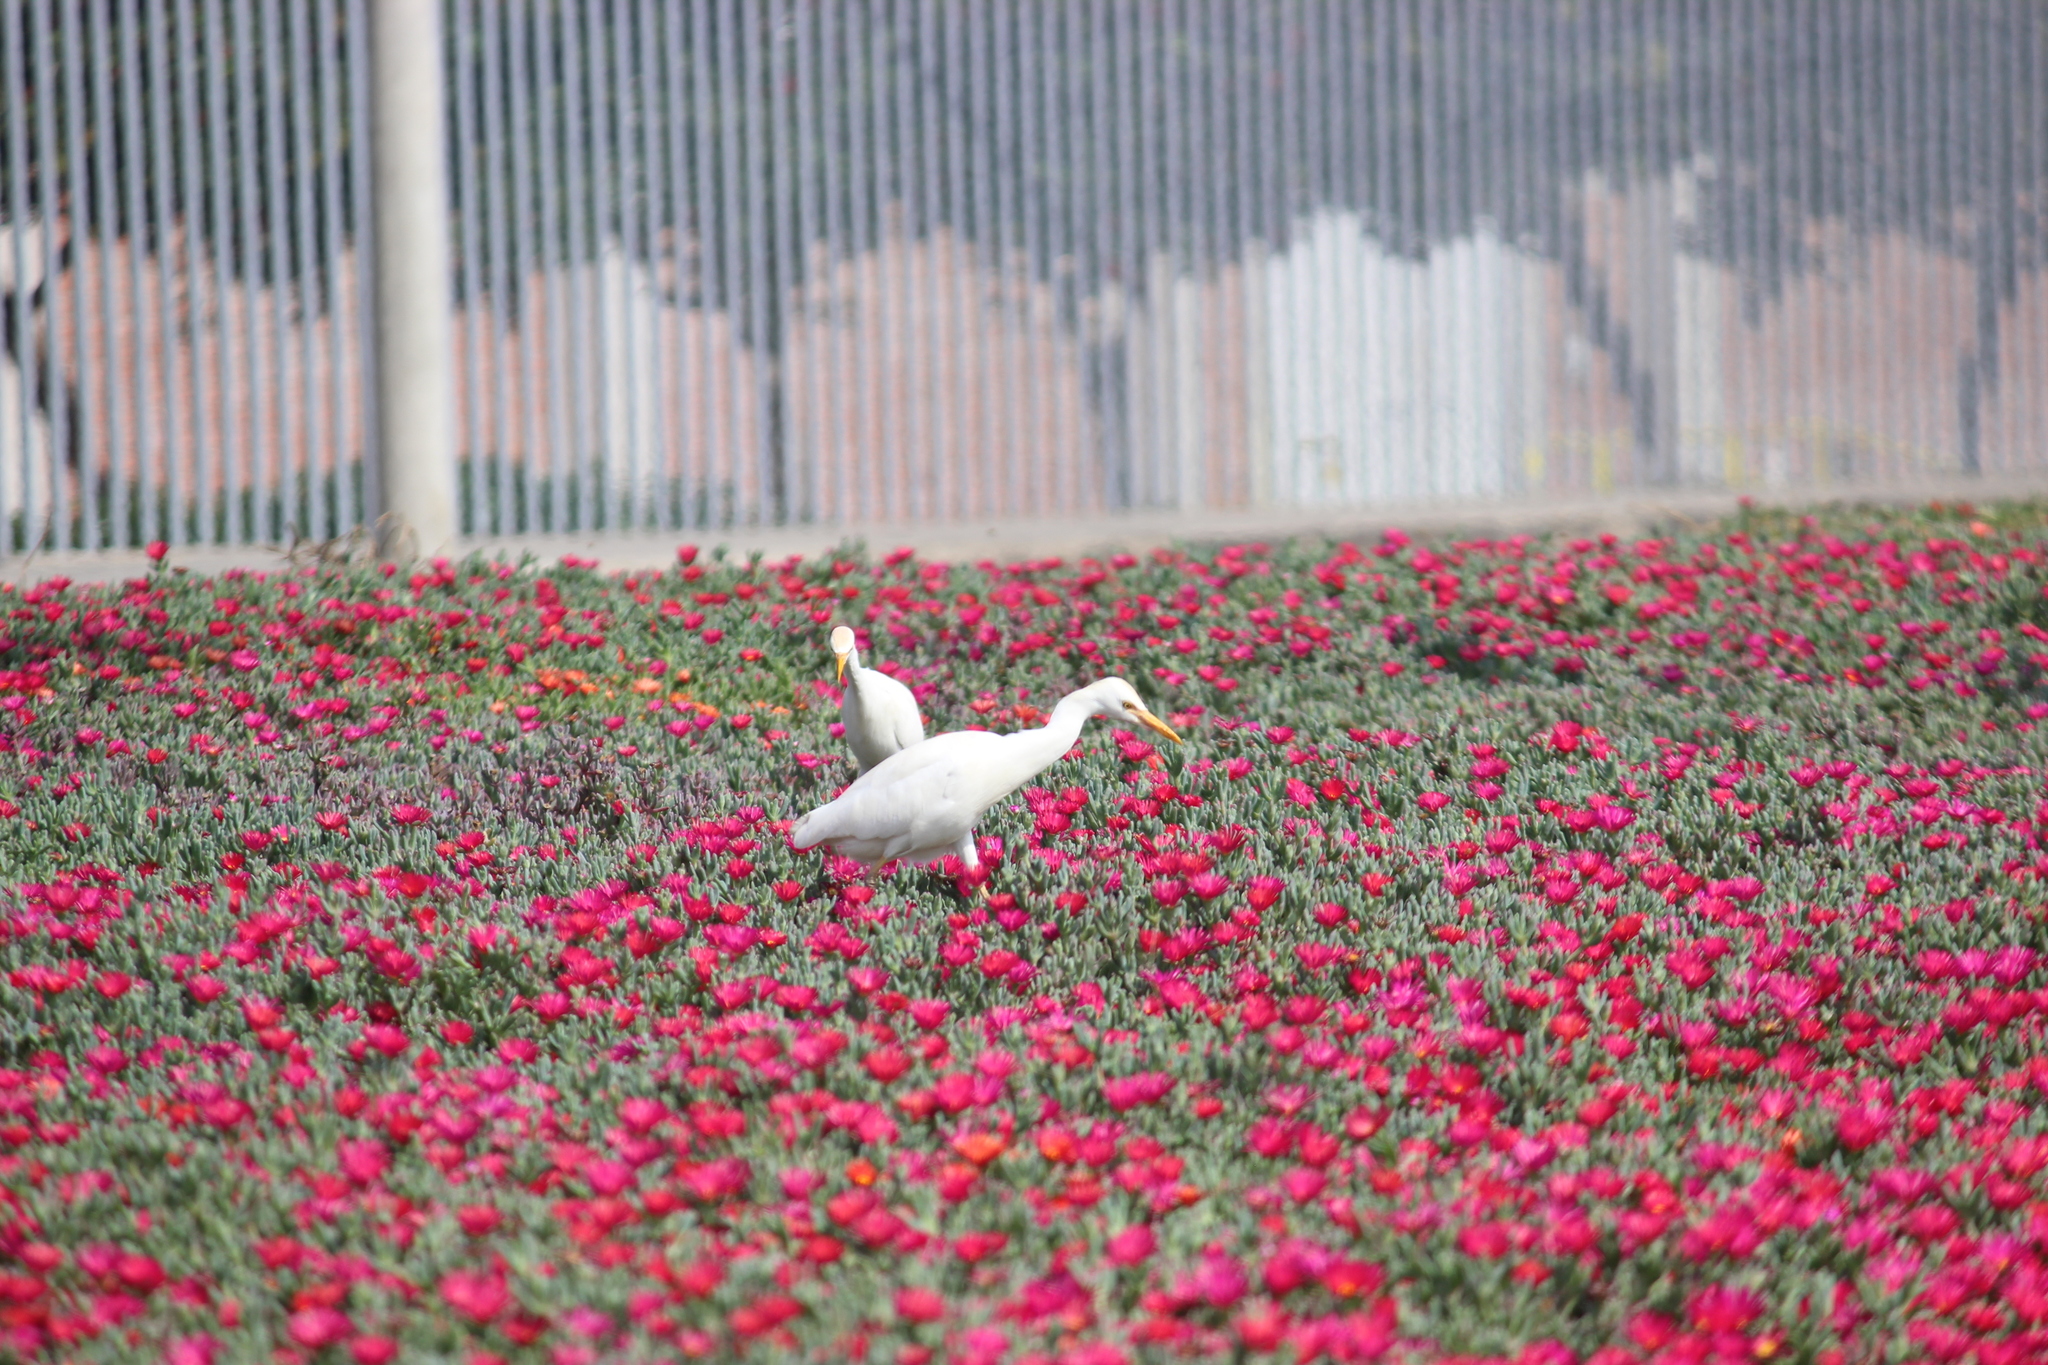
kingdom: Animalia
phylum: Chordata
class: Aves
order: Pelecaniformes
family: Ardeidae
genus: Bubulcus
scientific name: Bubulcus ibis
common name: Cattle egret
